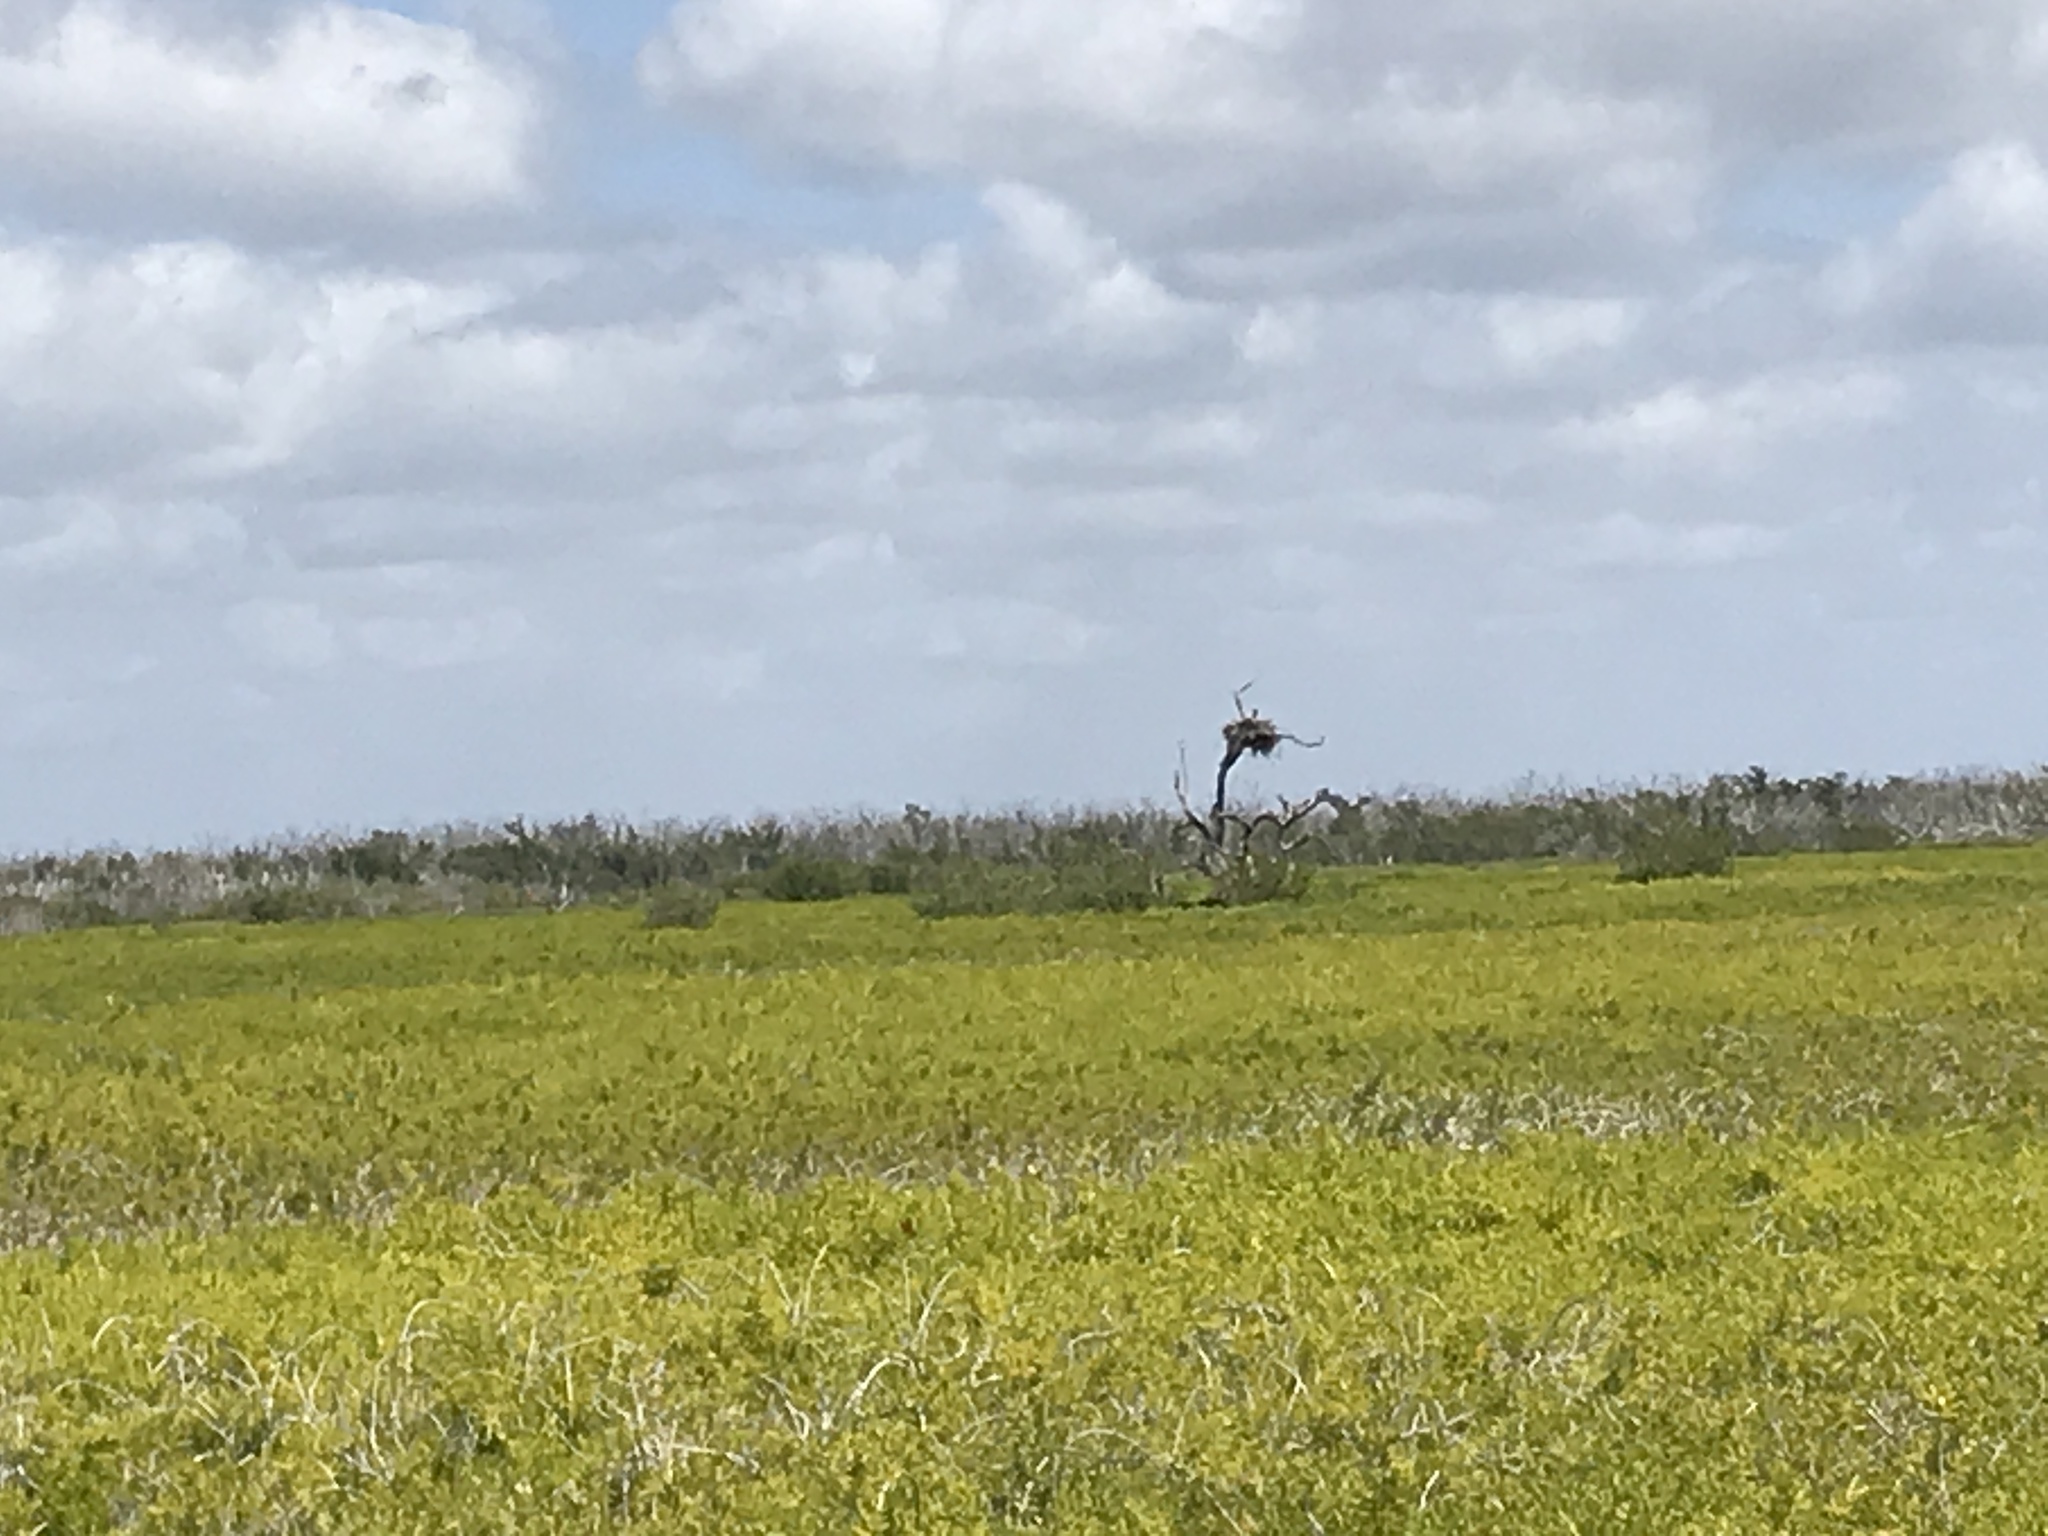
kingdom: Animalia
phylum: Chordata
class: Aves
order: Accipitriformes
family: Pandionidae
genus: Pandion
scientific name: Pandion haliaetus
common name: Osprey
